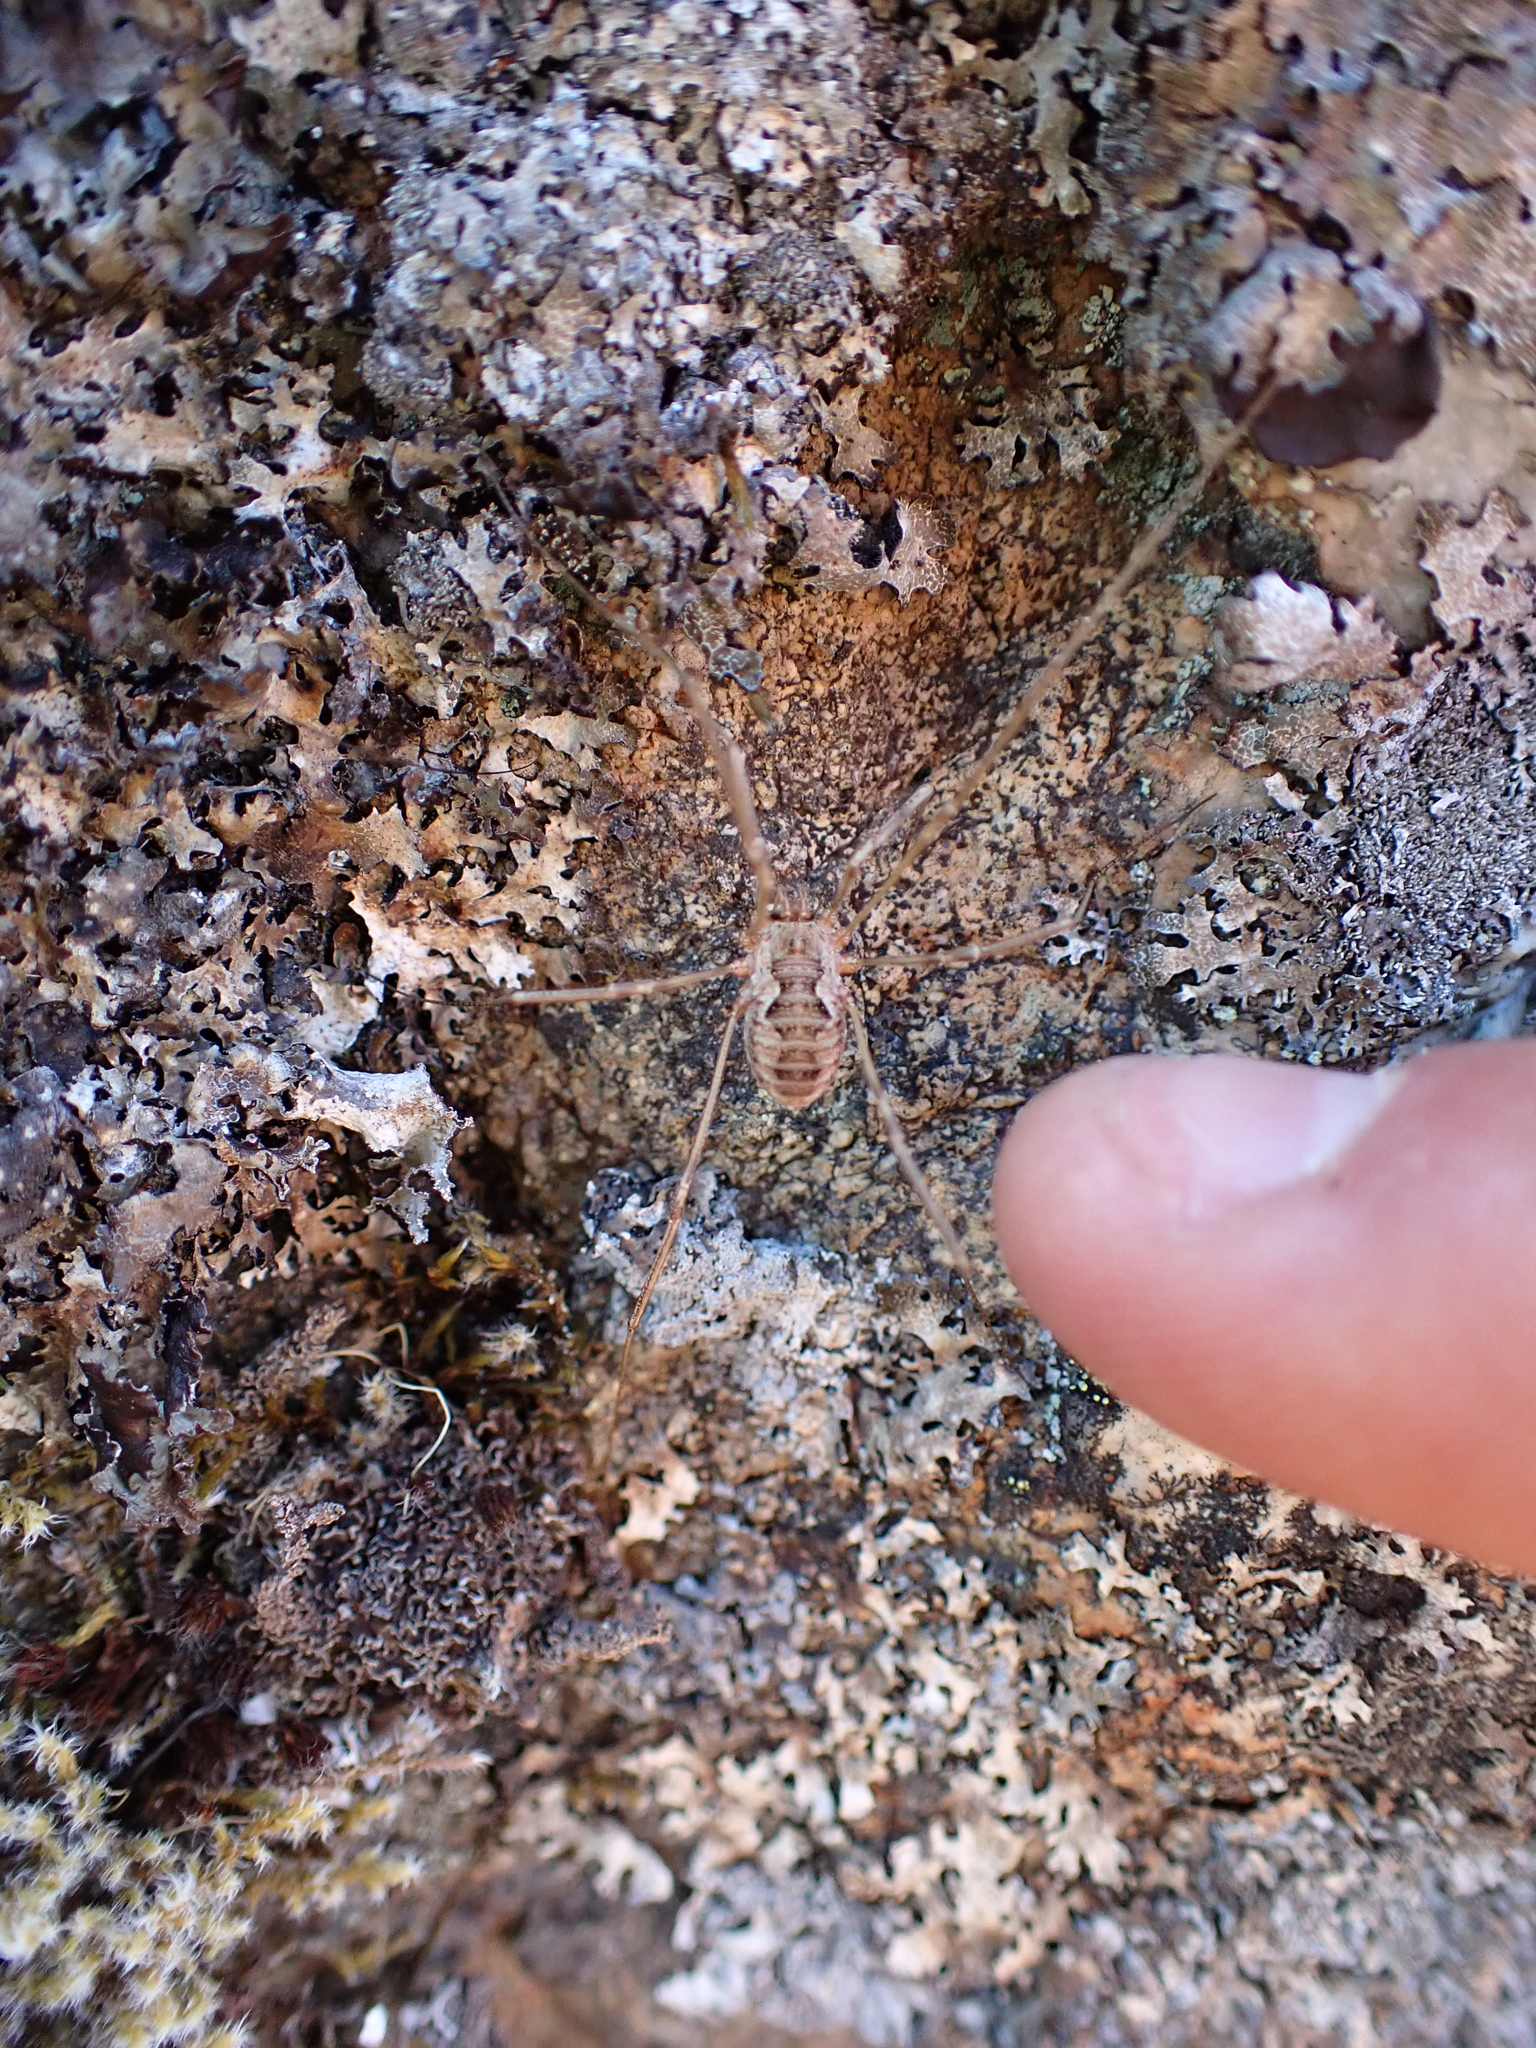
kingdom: Animalia
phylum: Arthropoda
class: Arachnida
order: Opiliones
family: Phalangiidae
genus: Phalangium
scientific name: Phalangium opilio
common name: Daddy longleg
